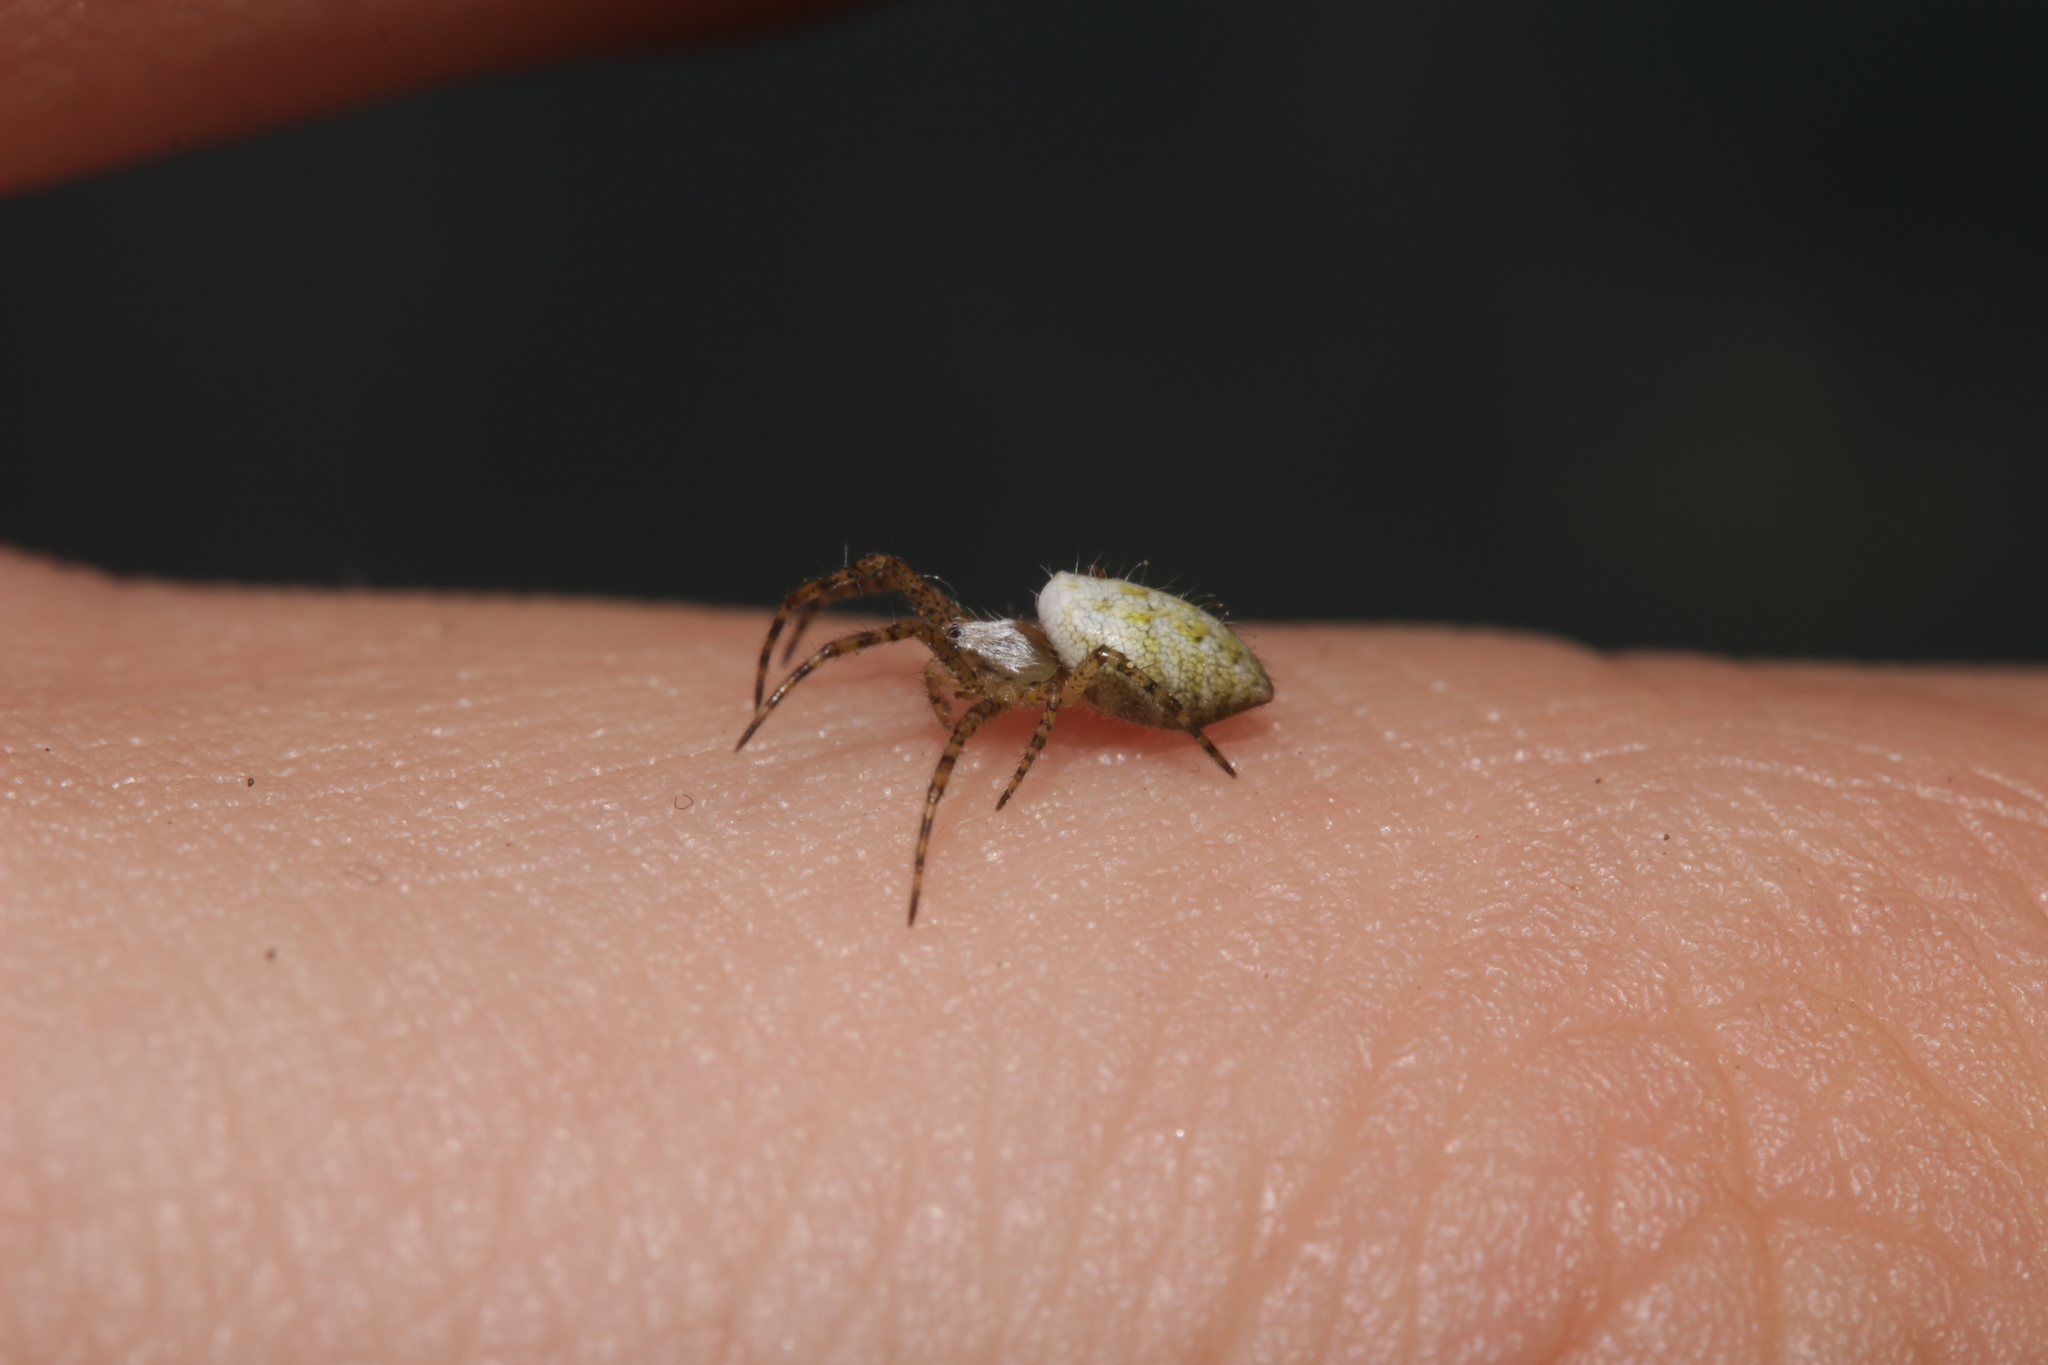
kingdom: Animalia
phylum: Arthropoda
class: Arachnida
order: Araneae
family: Araneidae
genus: Argiope
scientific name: Argiope bruennichi
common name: Wasp spider
